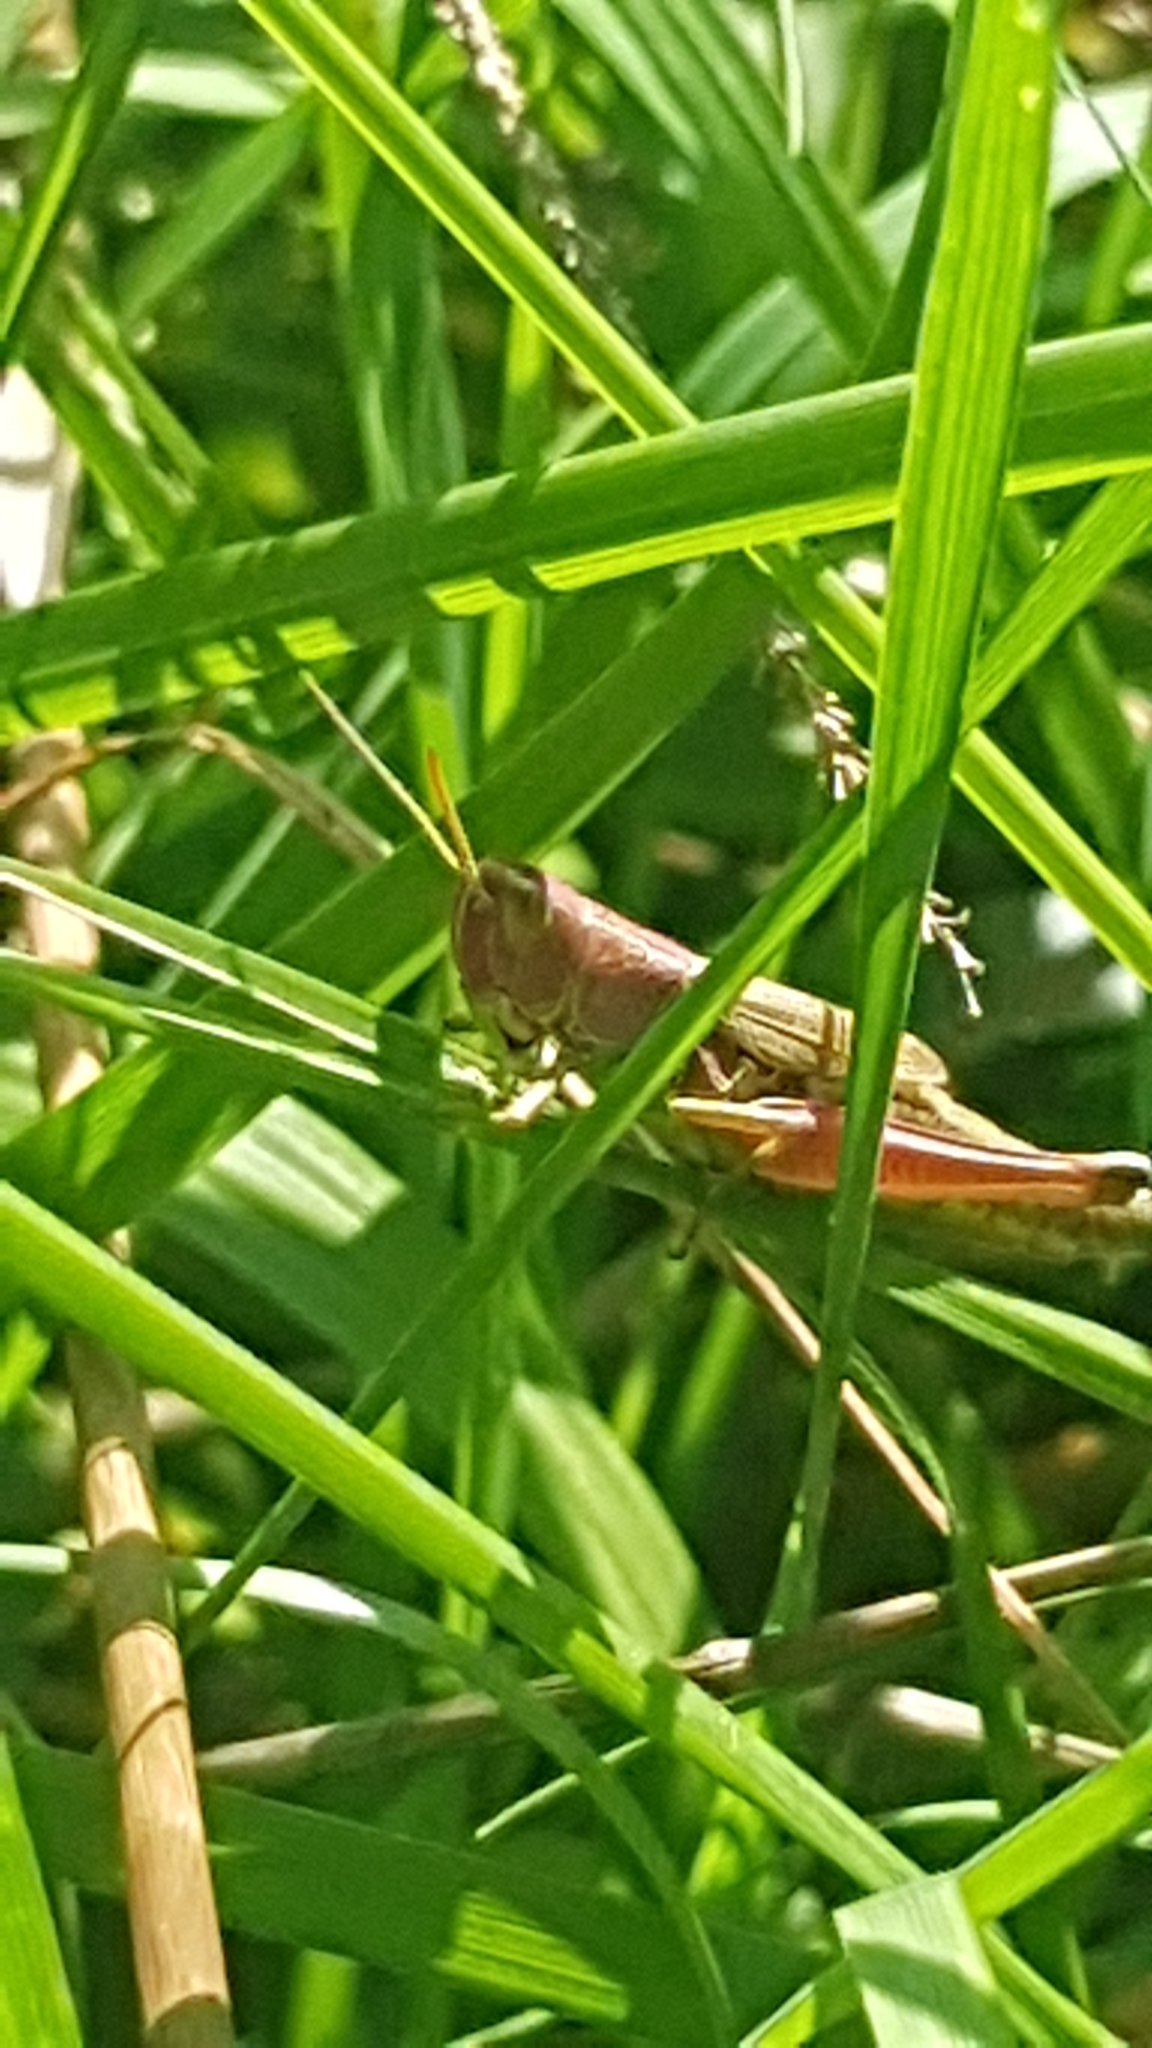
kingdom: Animalia
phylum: Arthropoda
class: Insecta
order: Orthoptera
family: Acrididae
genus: Pseudochorthippus
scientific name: Pseudochorthippus parallelus
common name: Meadow grasshopper
